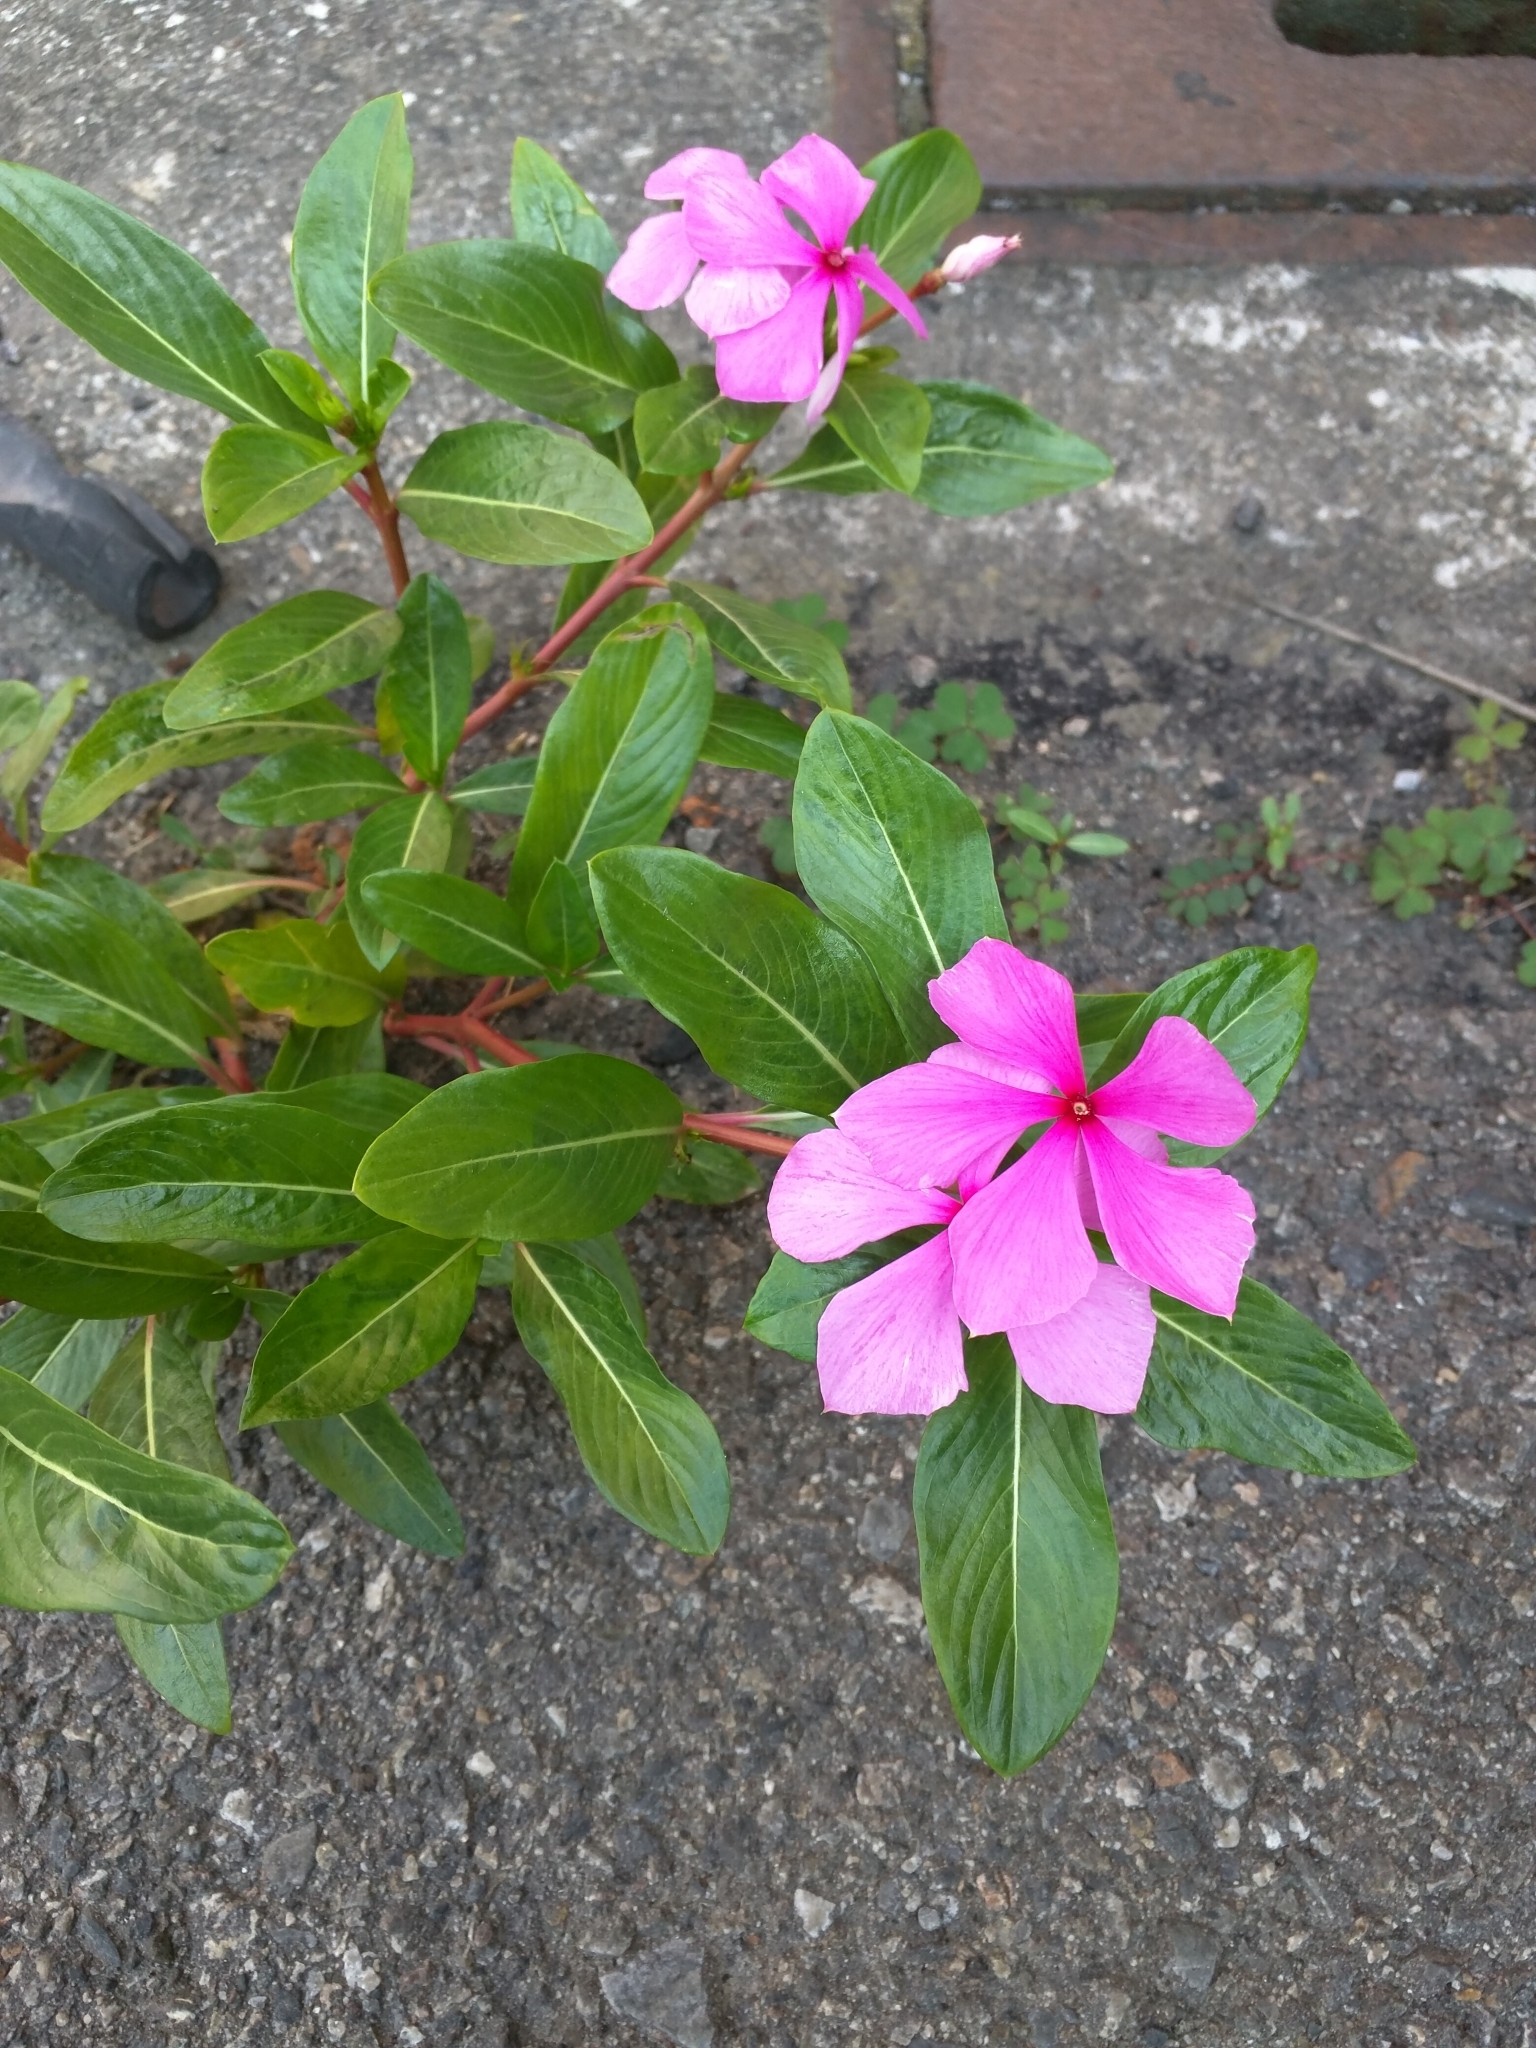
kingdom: Plantae
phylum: Tracheophyta
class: Magnoliopsida
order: Gentianales
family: Apocynaceae
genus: Catharanthus
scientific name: Catharanthus roseus
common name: Madagascar periwinkle
